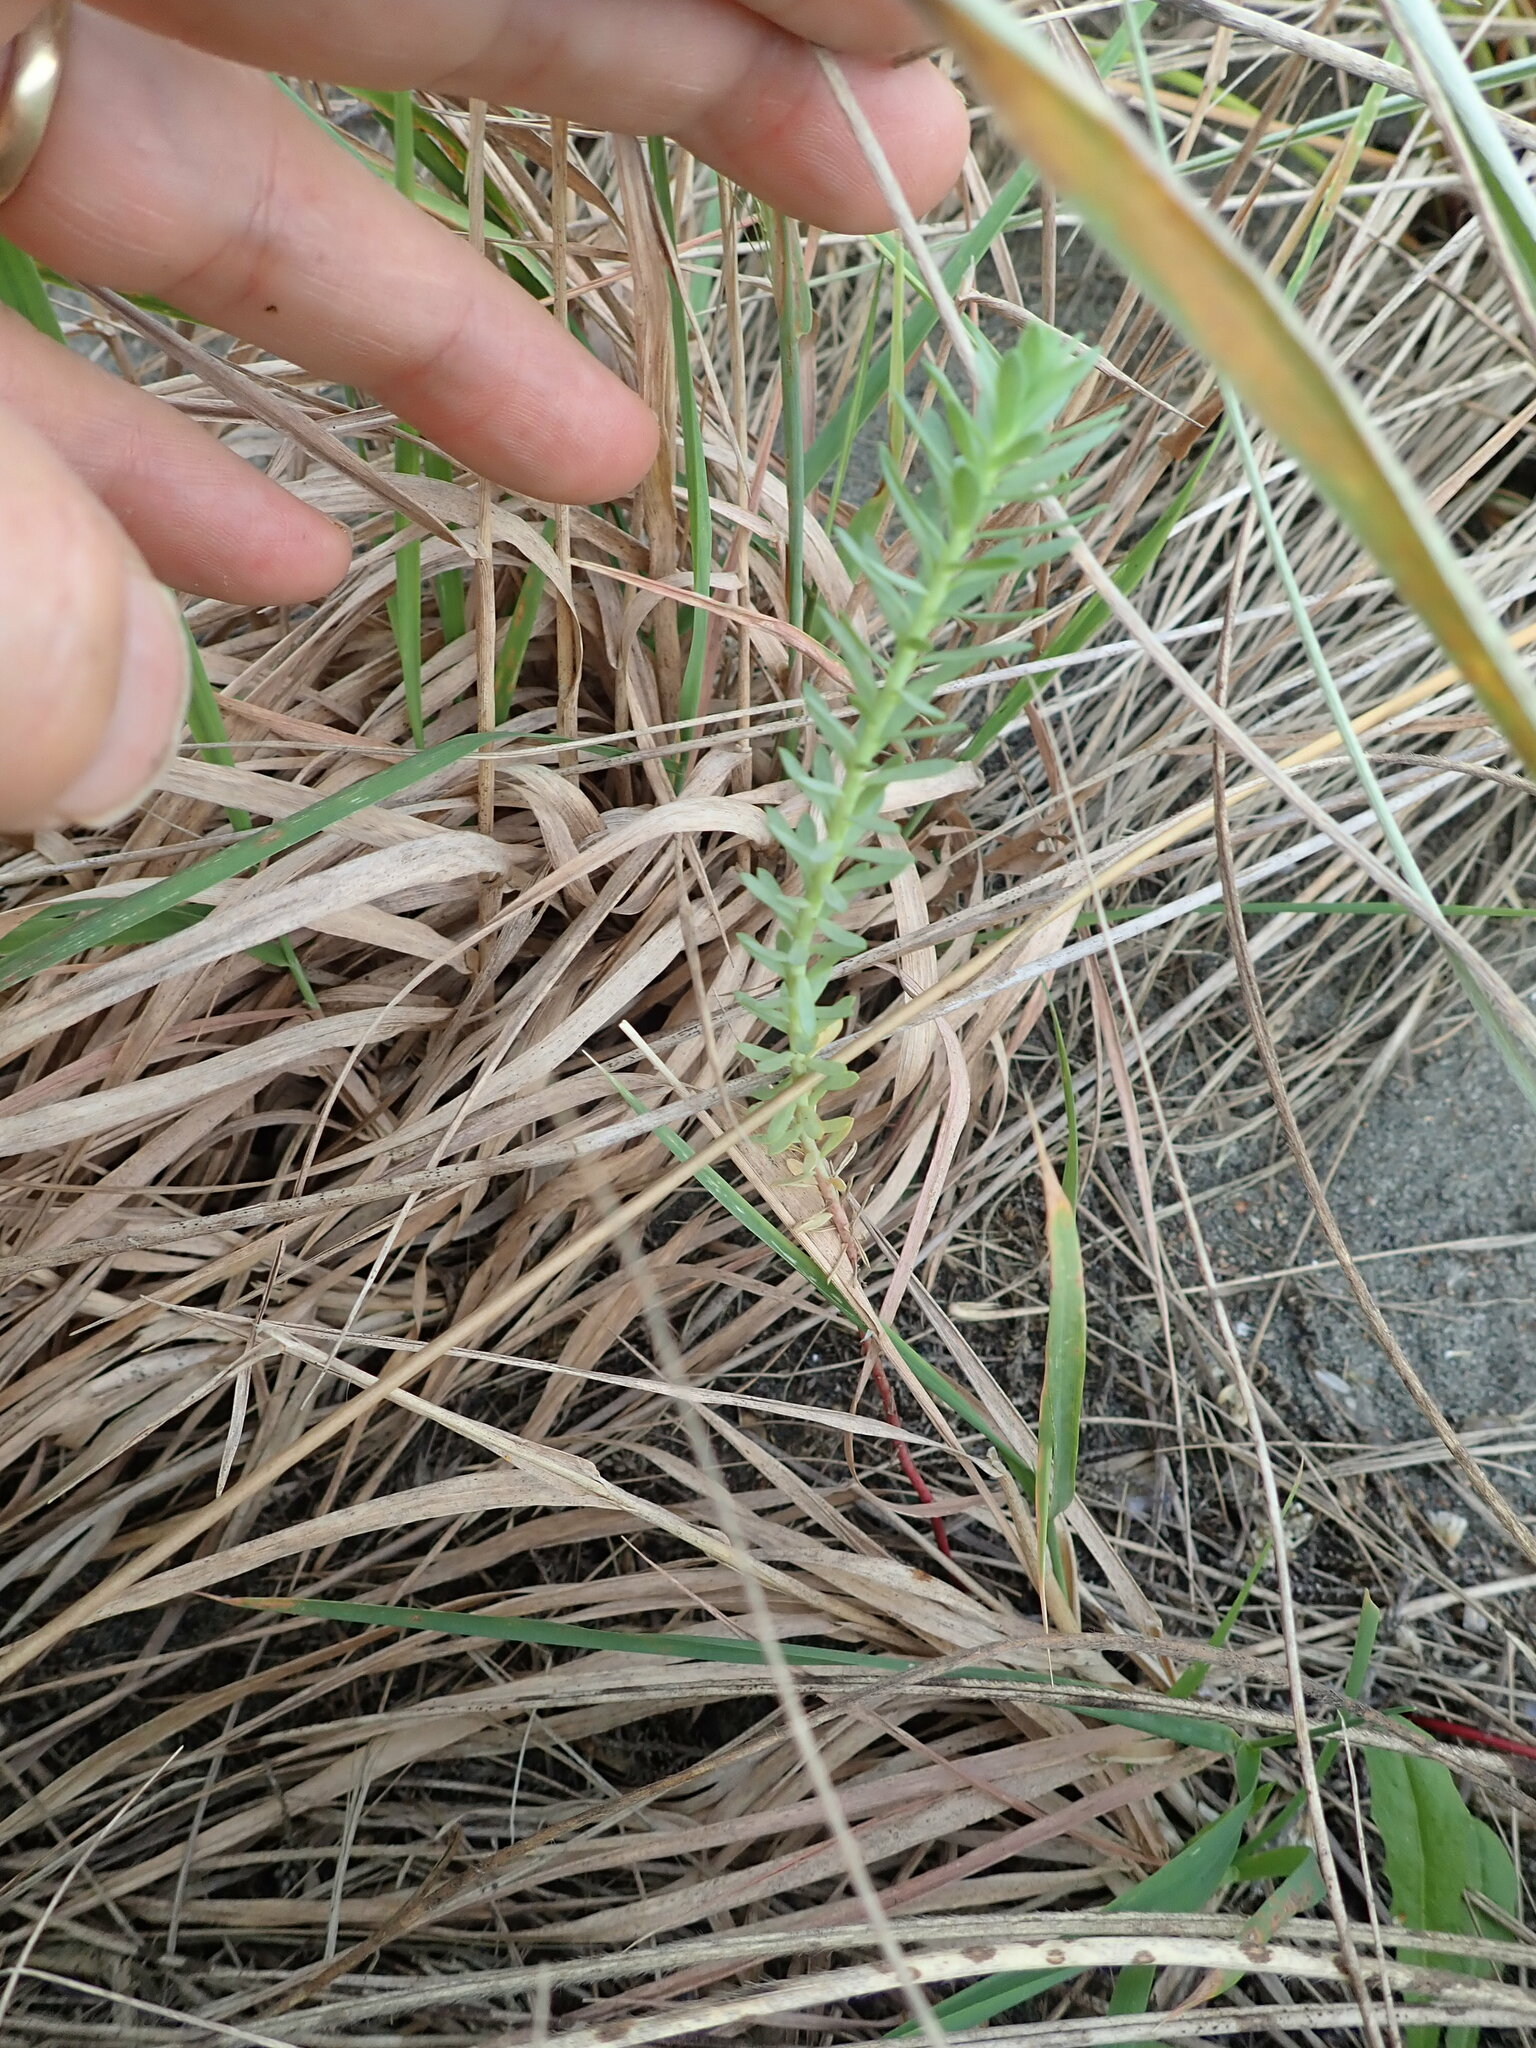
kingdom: Plantae
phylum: Tracheophyta
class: Magnoliopsida
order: Malpighiales
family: Euphorbiaceae
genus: Euphorbia
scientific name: Euphorbia paralias
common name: Sea spurge
